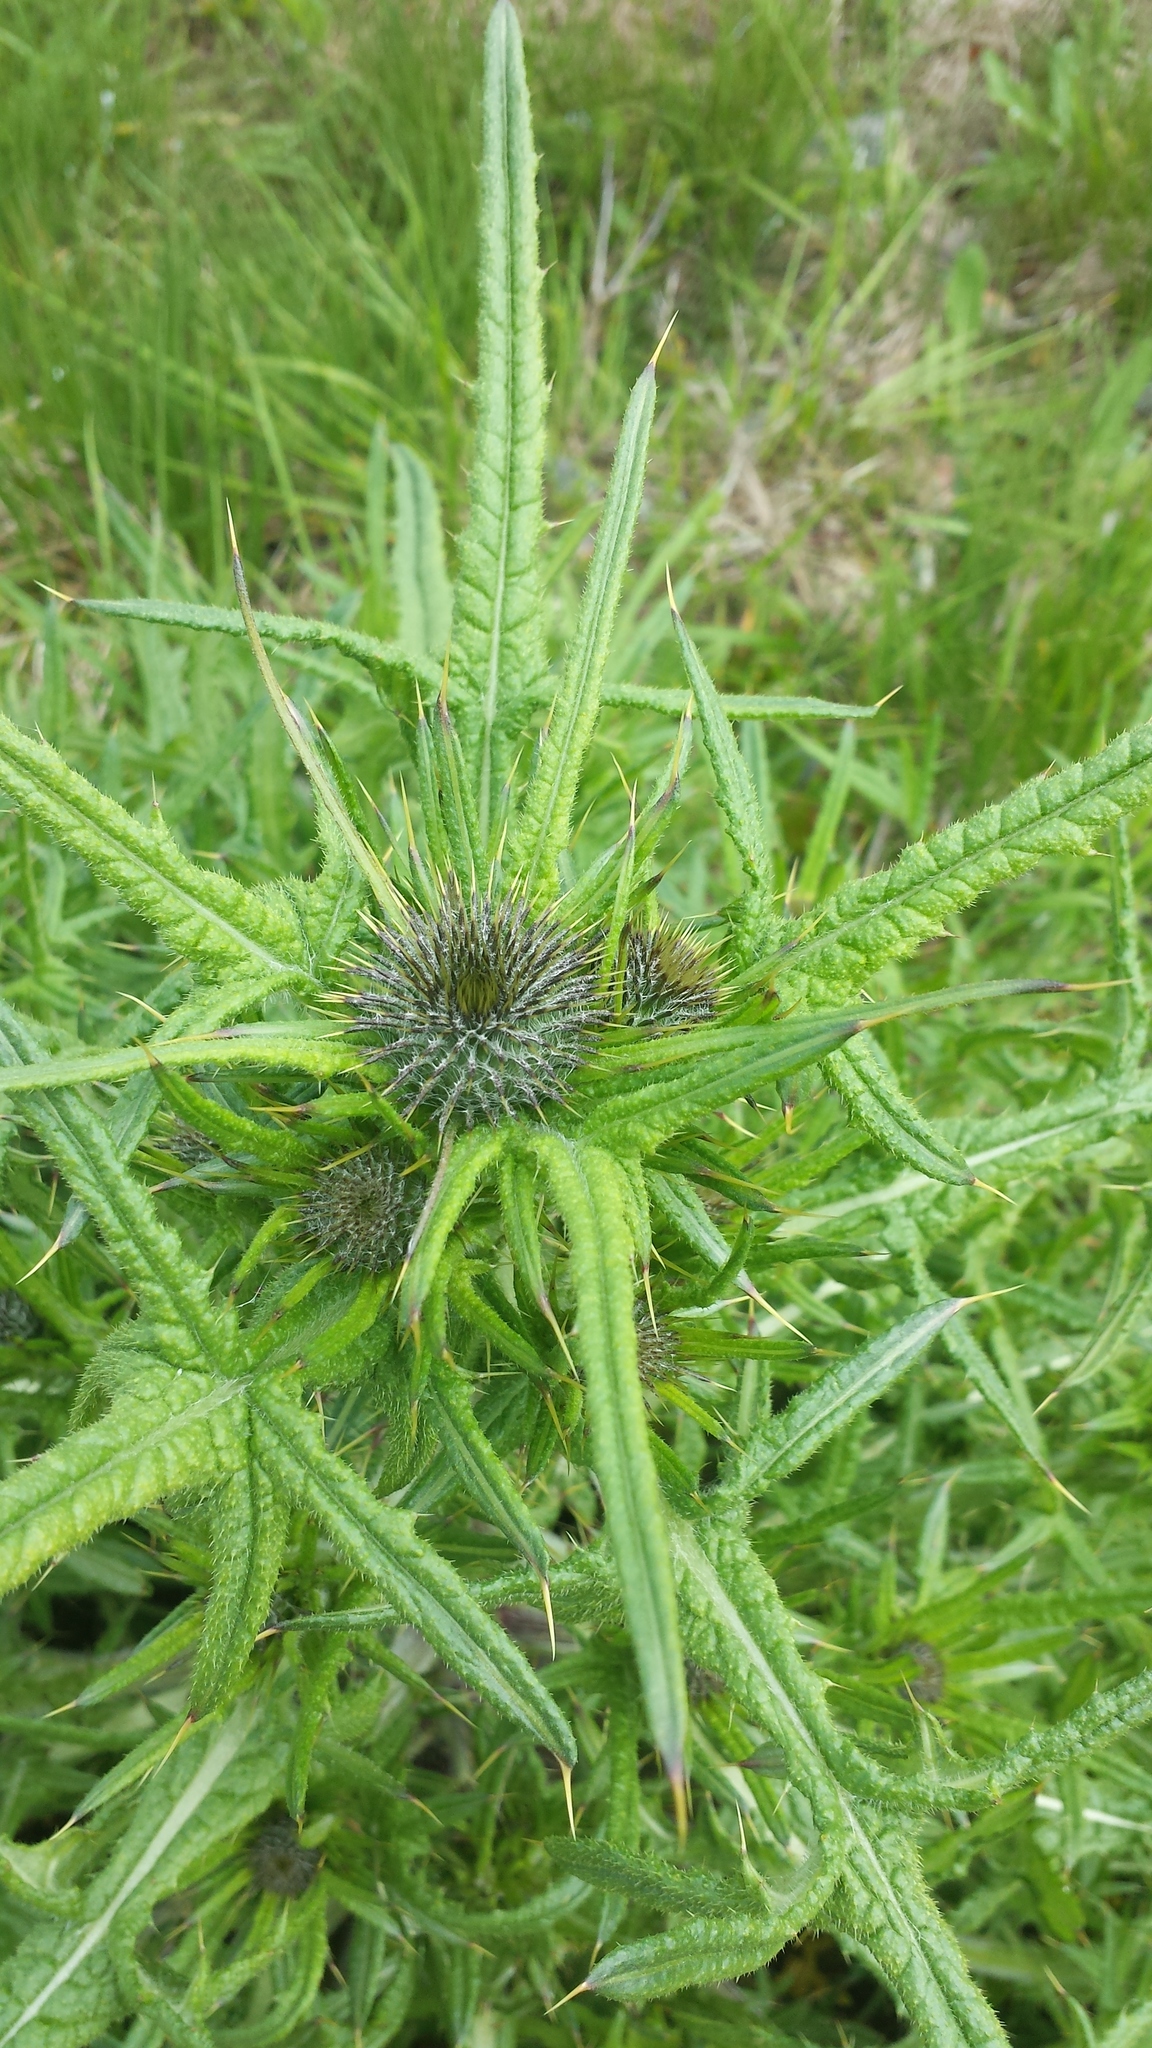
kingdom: Plantae
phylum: Tracheophyta
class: Magnoliopsida
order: Asterales
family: Asteraceae
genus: Cirsium
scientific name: Cirsium vulgare
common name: Bull thistle
